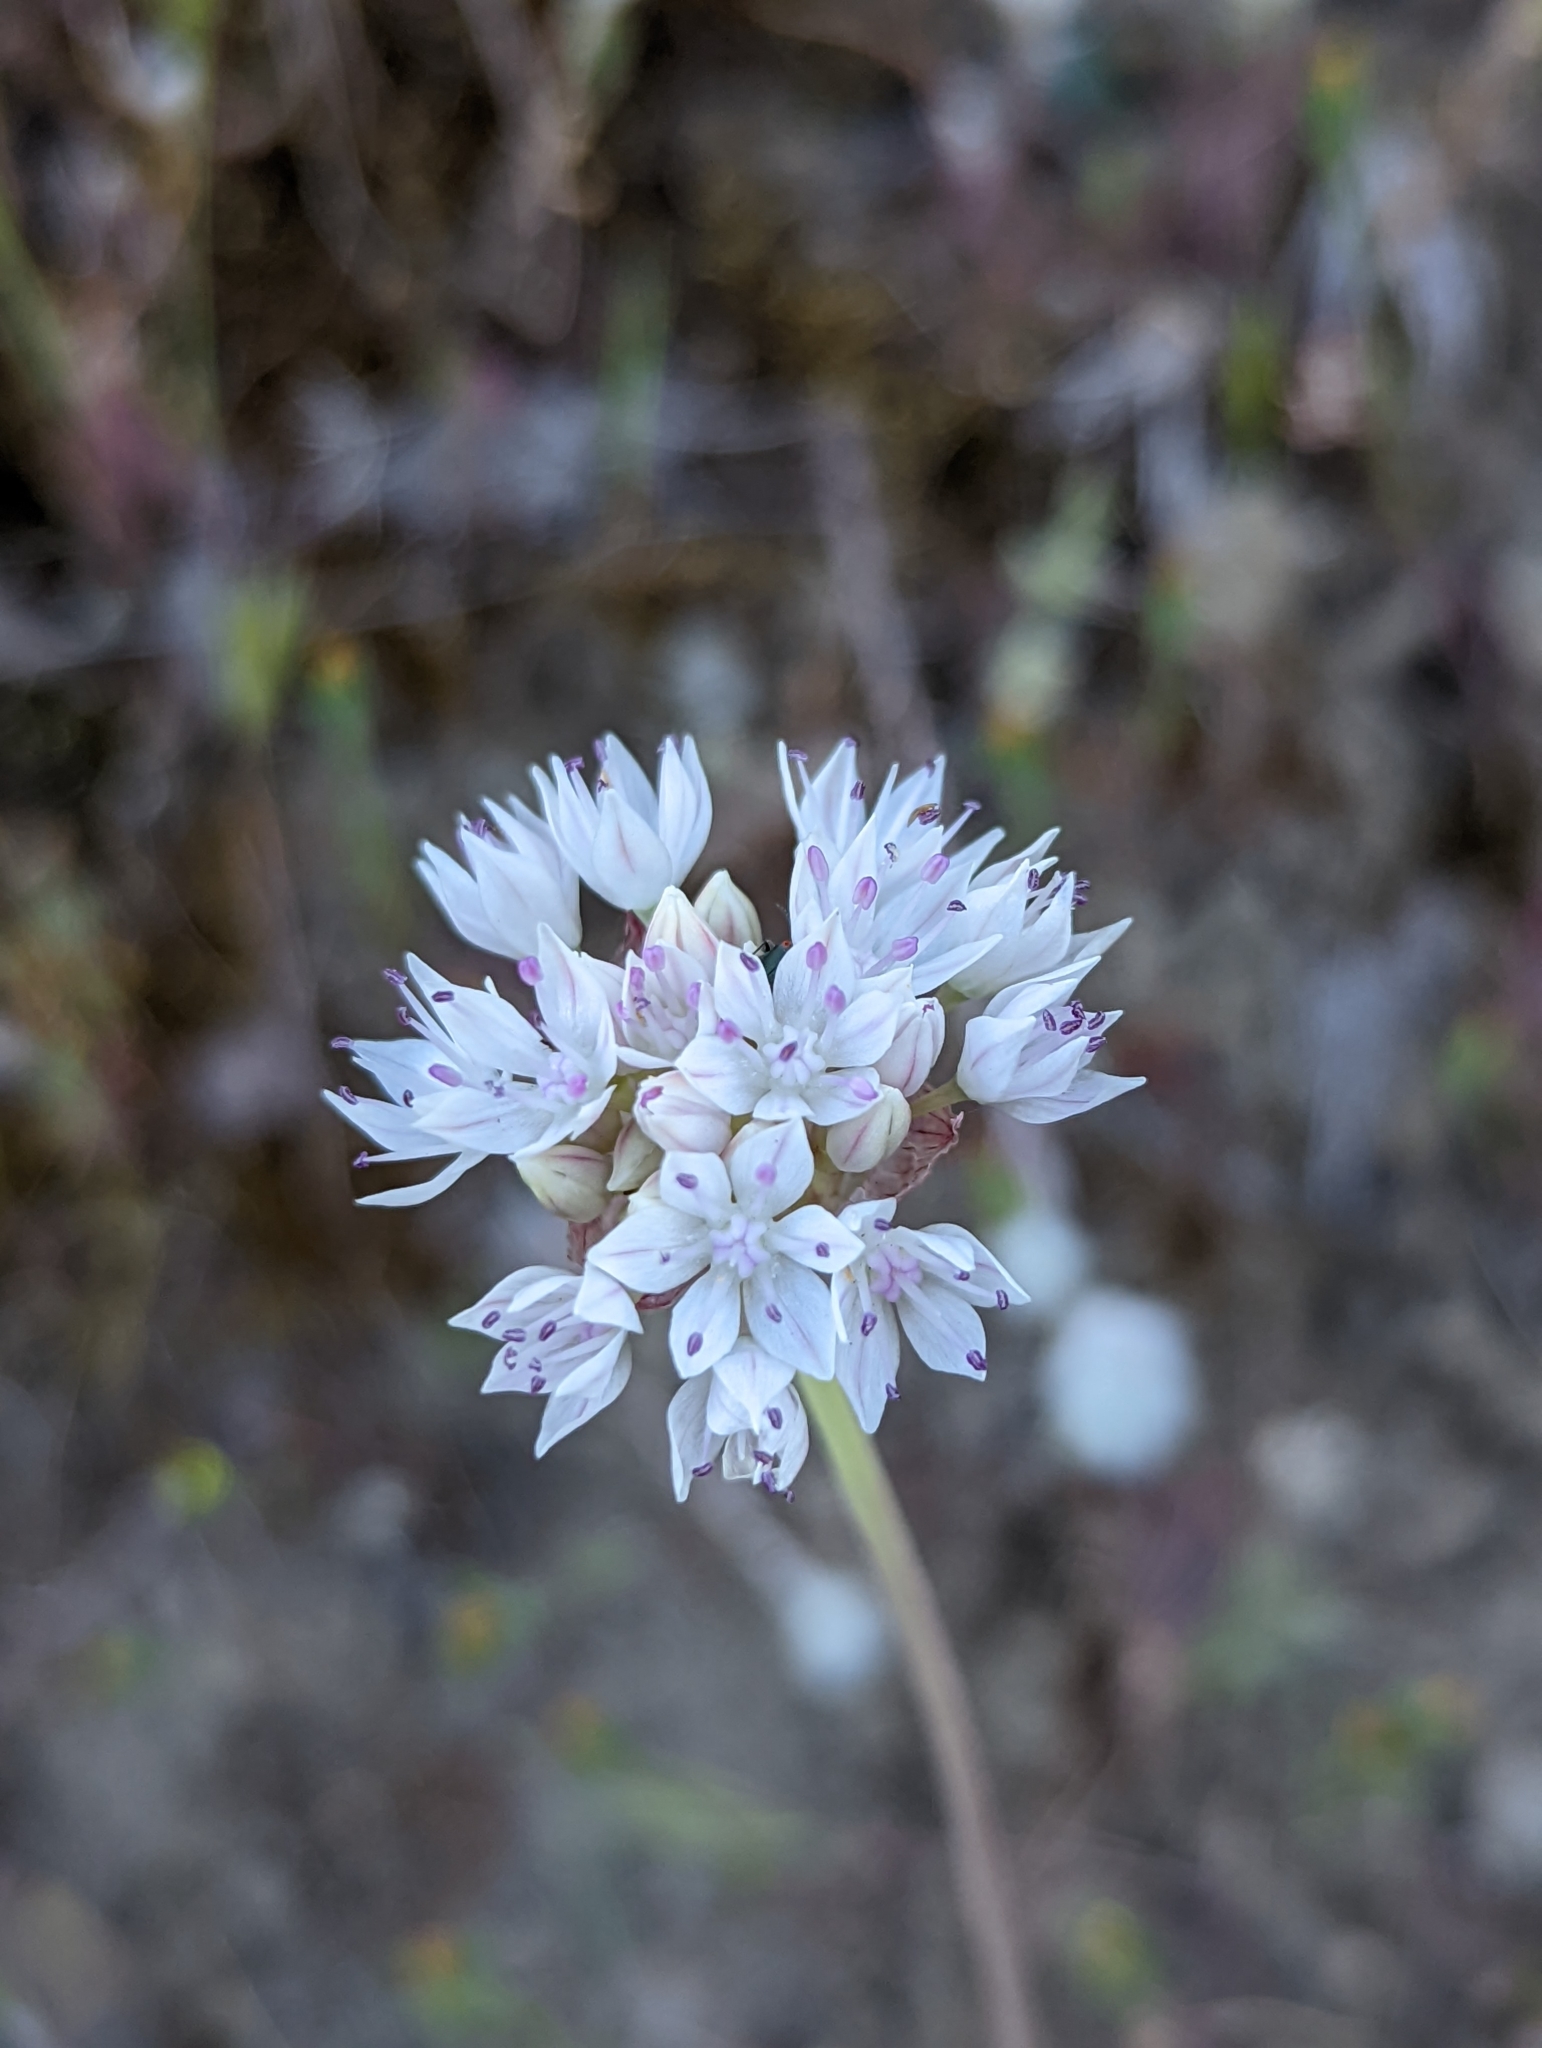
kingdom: Plantae
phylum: Tracheophyta
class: Liliopsida
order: Asparagales
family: Amaryllidaceae
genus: Allium
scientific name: Allium amplectens
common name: Narrow-leaved onion
